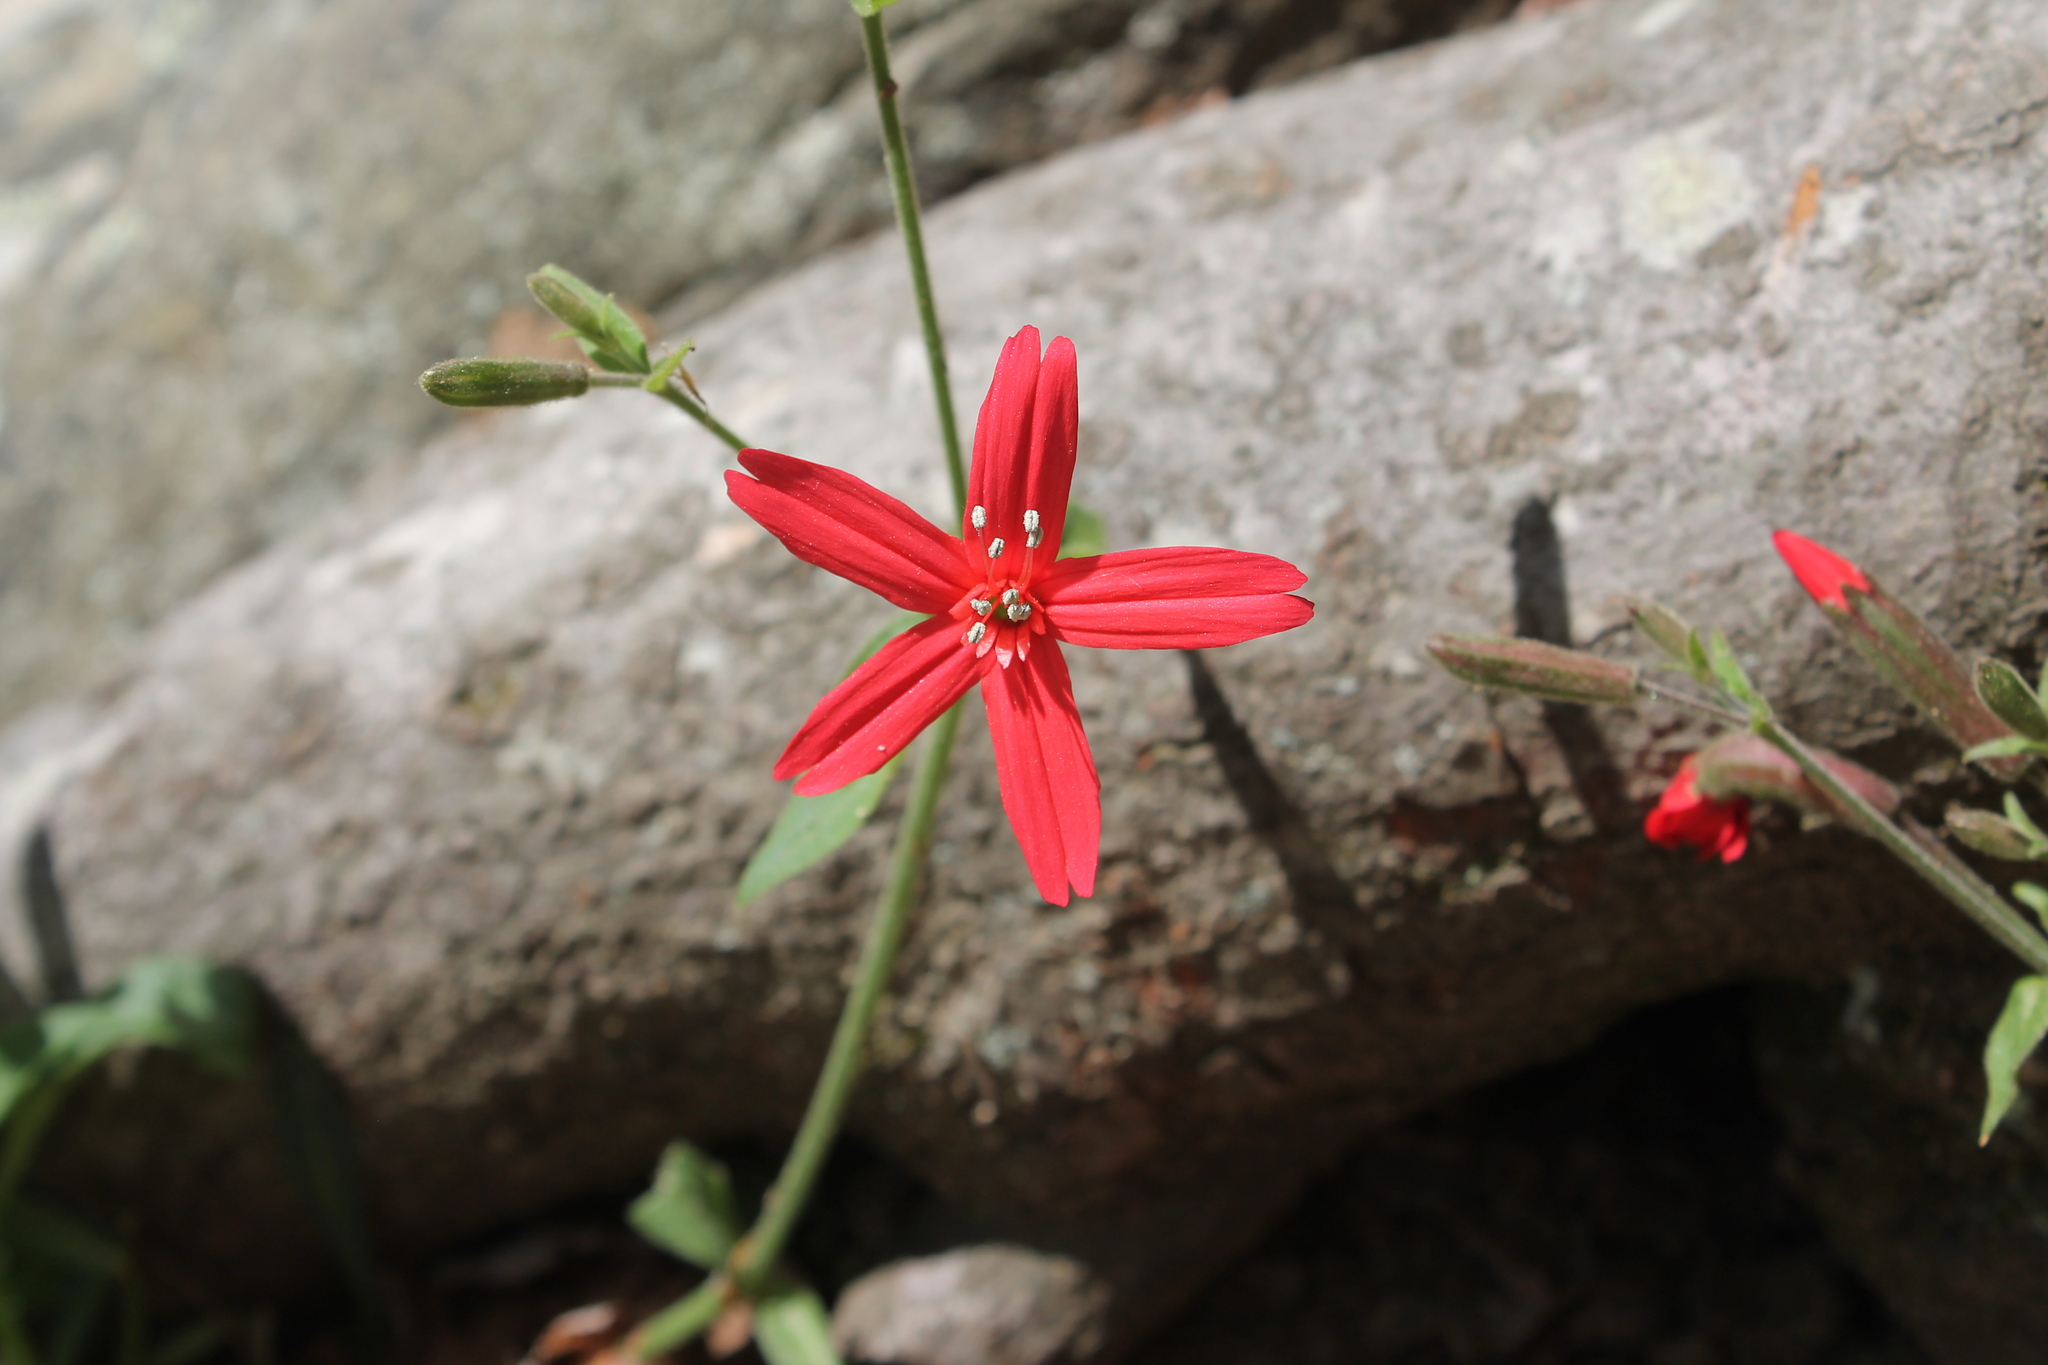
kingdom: Plantae
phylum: Tracheophyta
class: Magnoliopsida
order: Caryophyllales
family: Caryophyllaceae
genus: Silene
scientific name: Silene virginica
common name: Fire-pink
